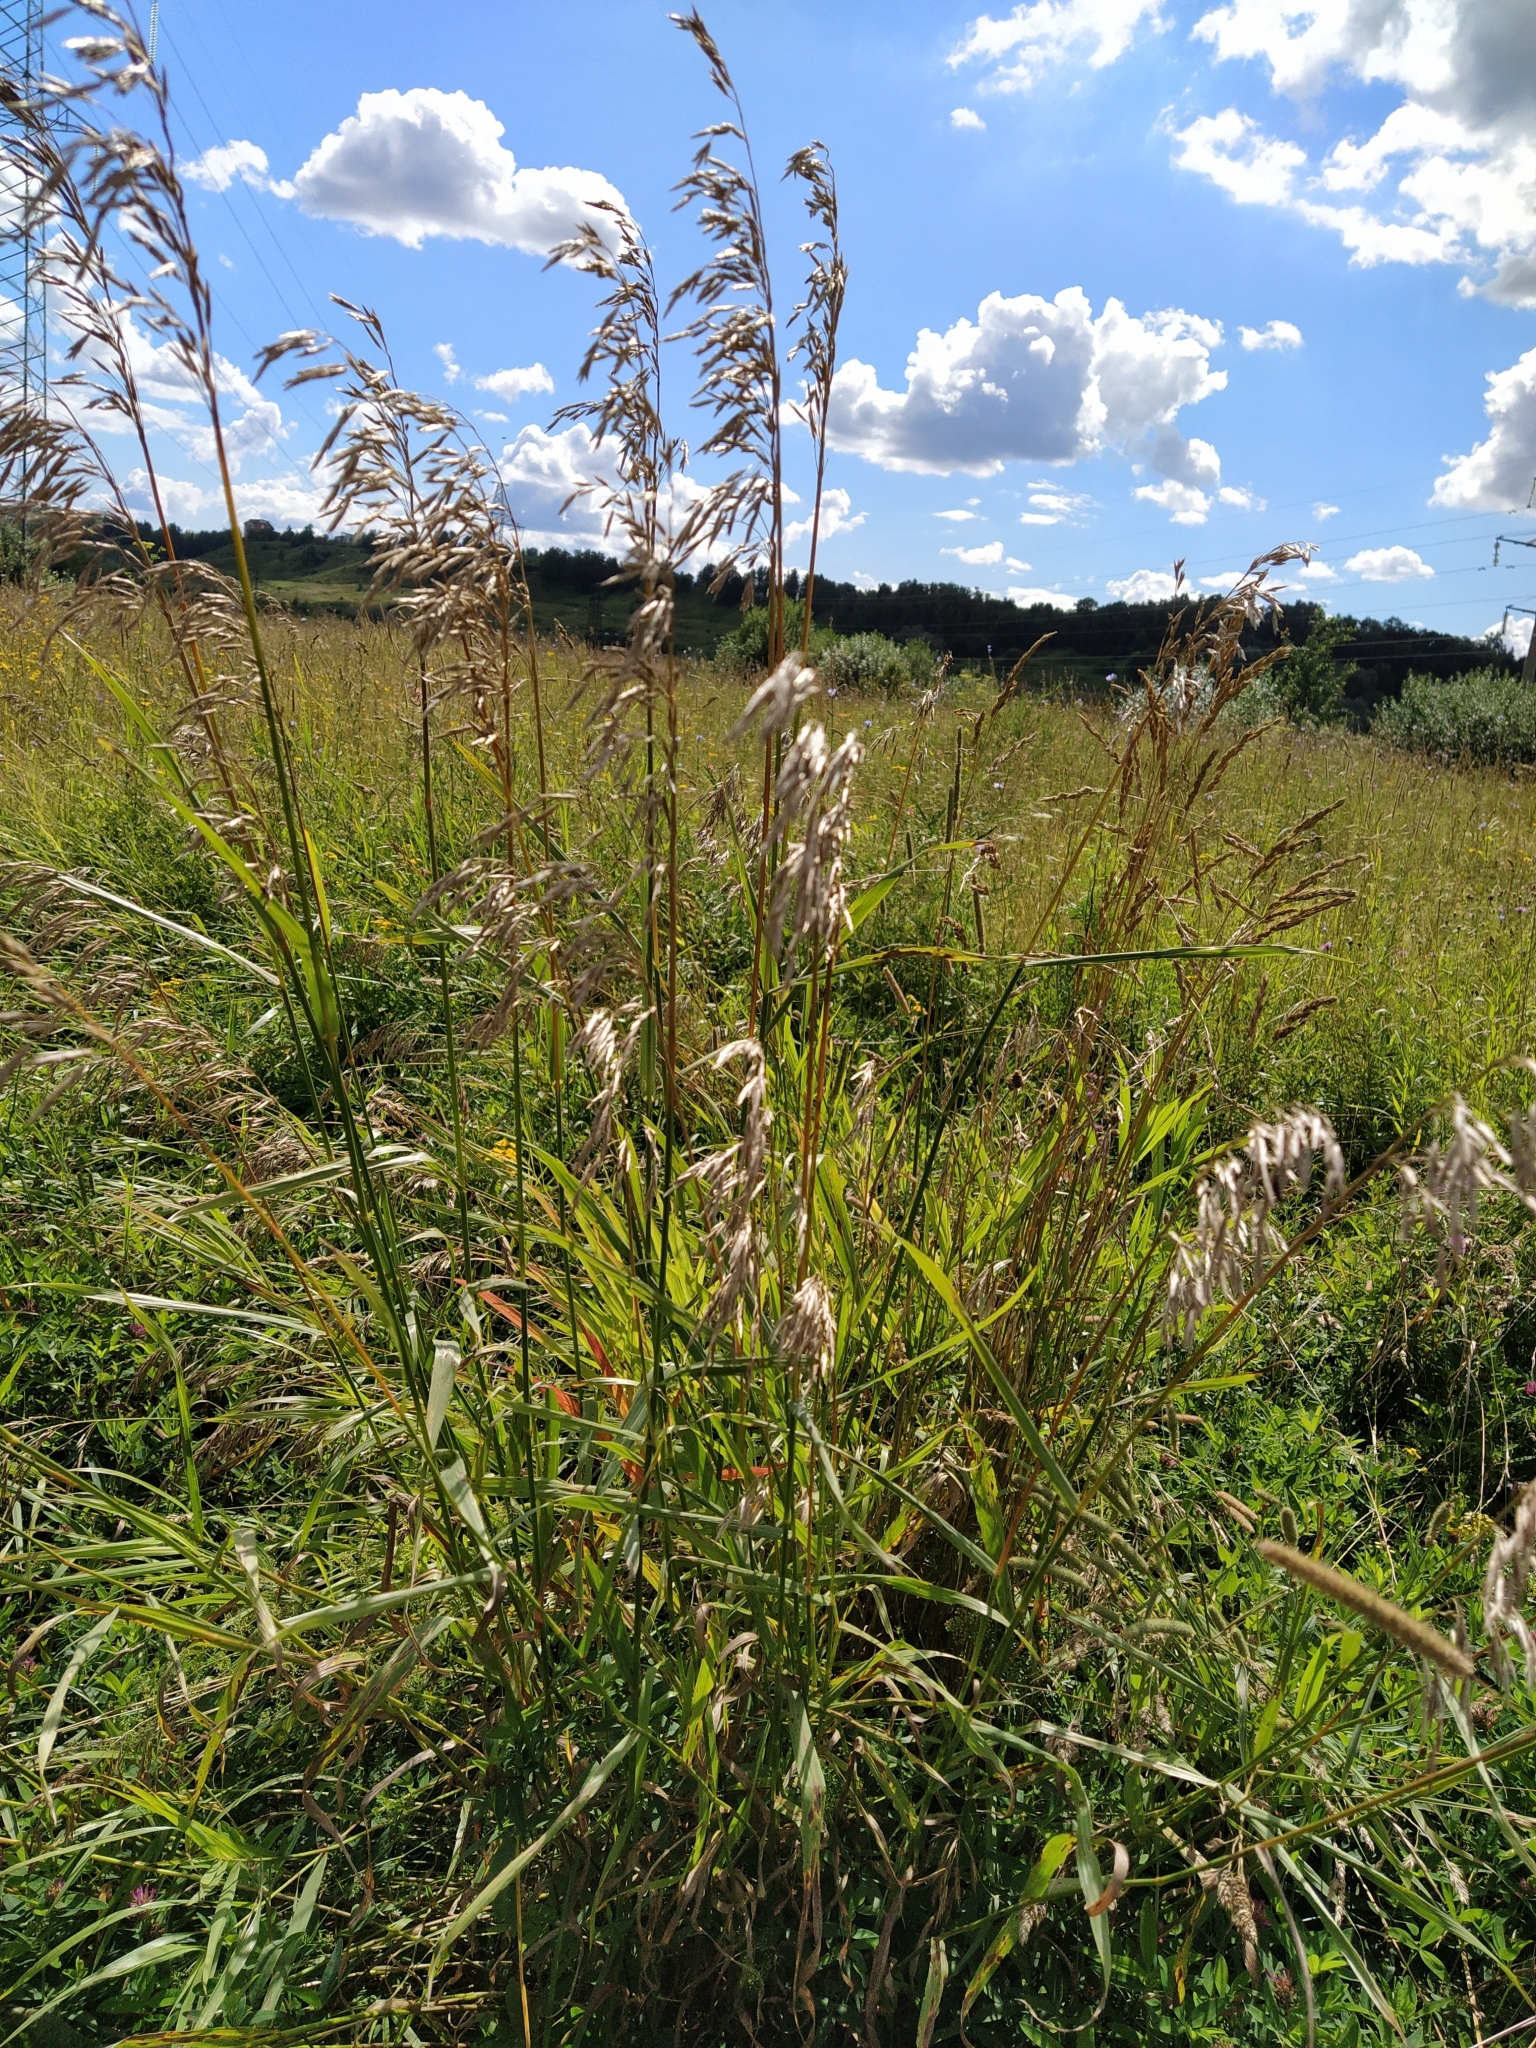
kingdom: Plantae
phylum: Tracheophyta
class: Liliopsida
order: Poales
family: Poaceae
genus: Bromus
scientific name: Bromus inermis
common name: Smooth brome
